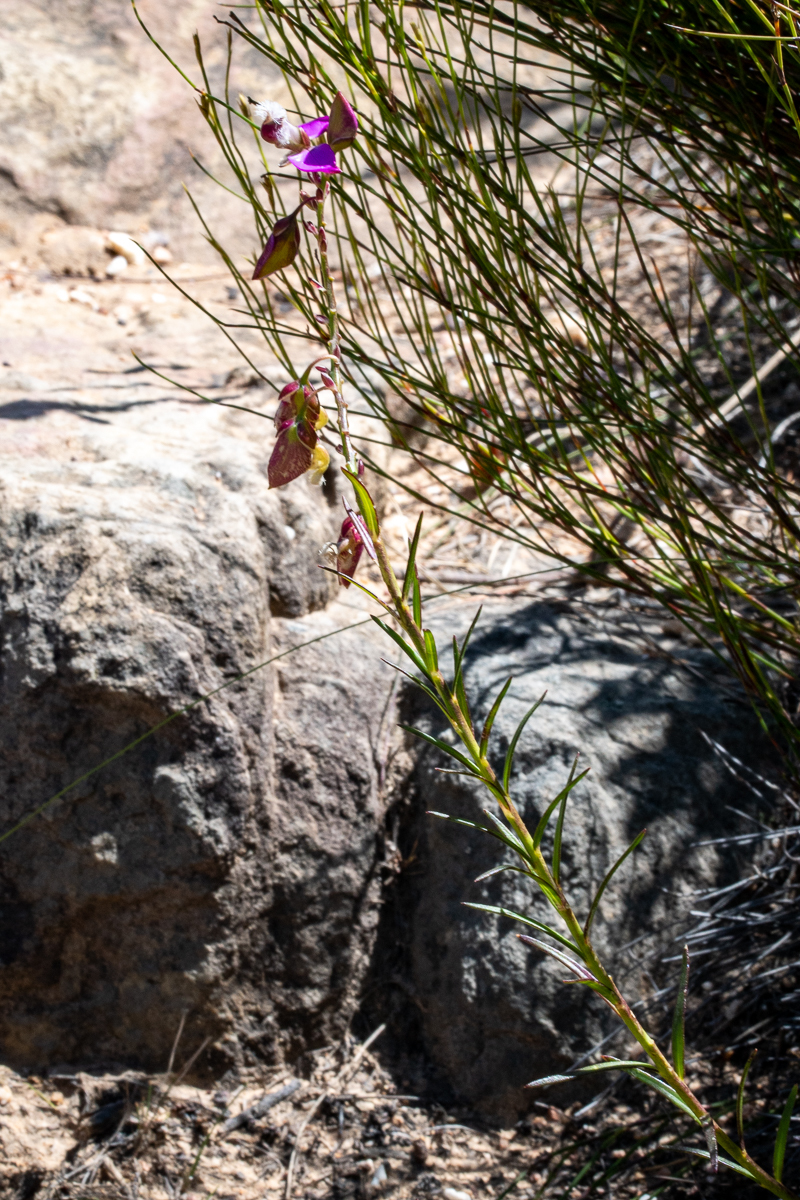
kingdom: Plantae
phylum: Tracheophyta
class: Magnoliopsida
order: Fabales
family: Polygalaceae
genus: Polygala
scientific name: Polygala bracteolata
